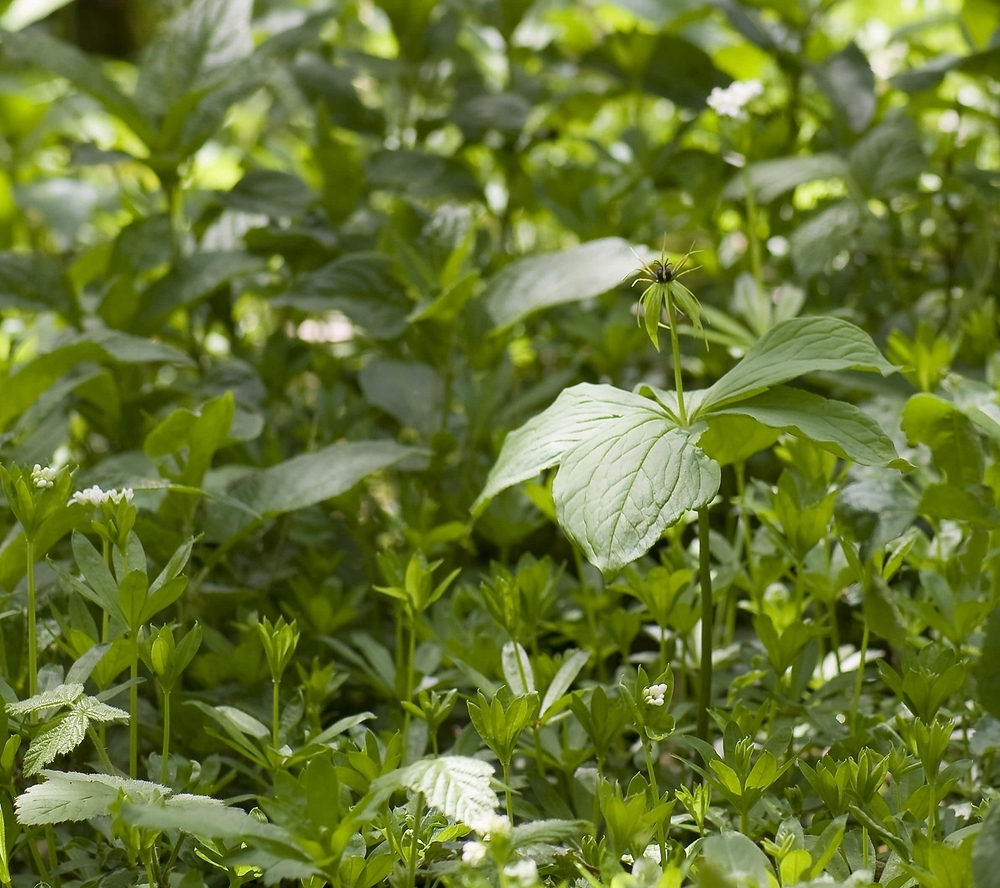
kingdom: Plantae
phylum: Tracheophyta
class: Liliopsida
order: Liliales
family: Melanthiaceae
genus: Paris
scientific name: Paris quadrifolia
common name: Herb-paris
